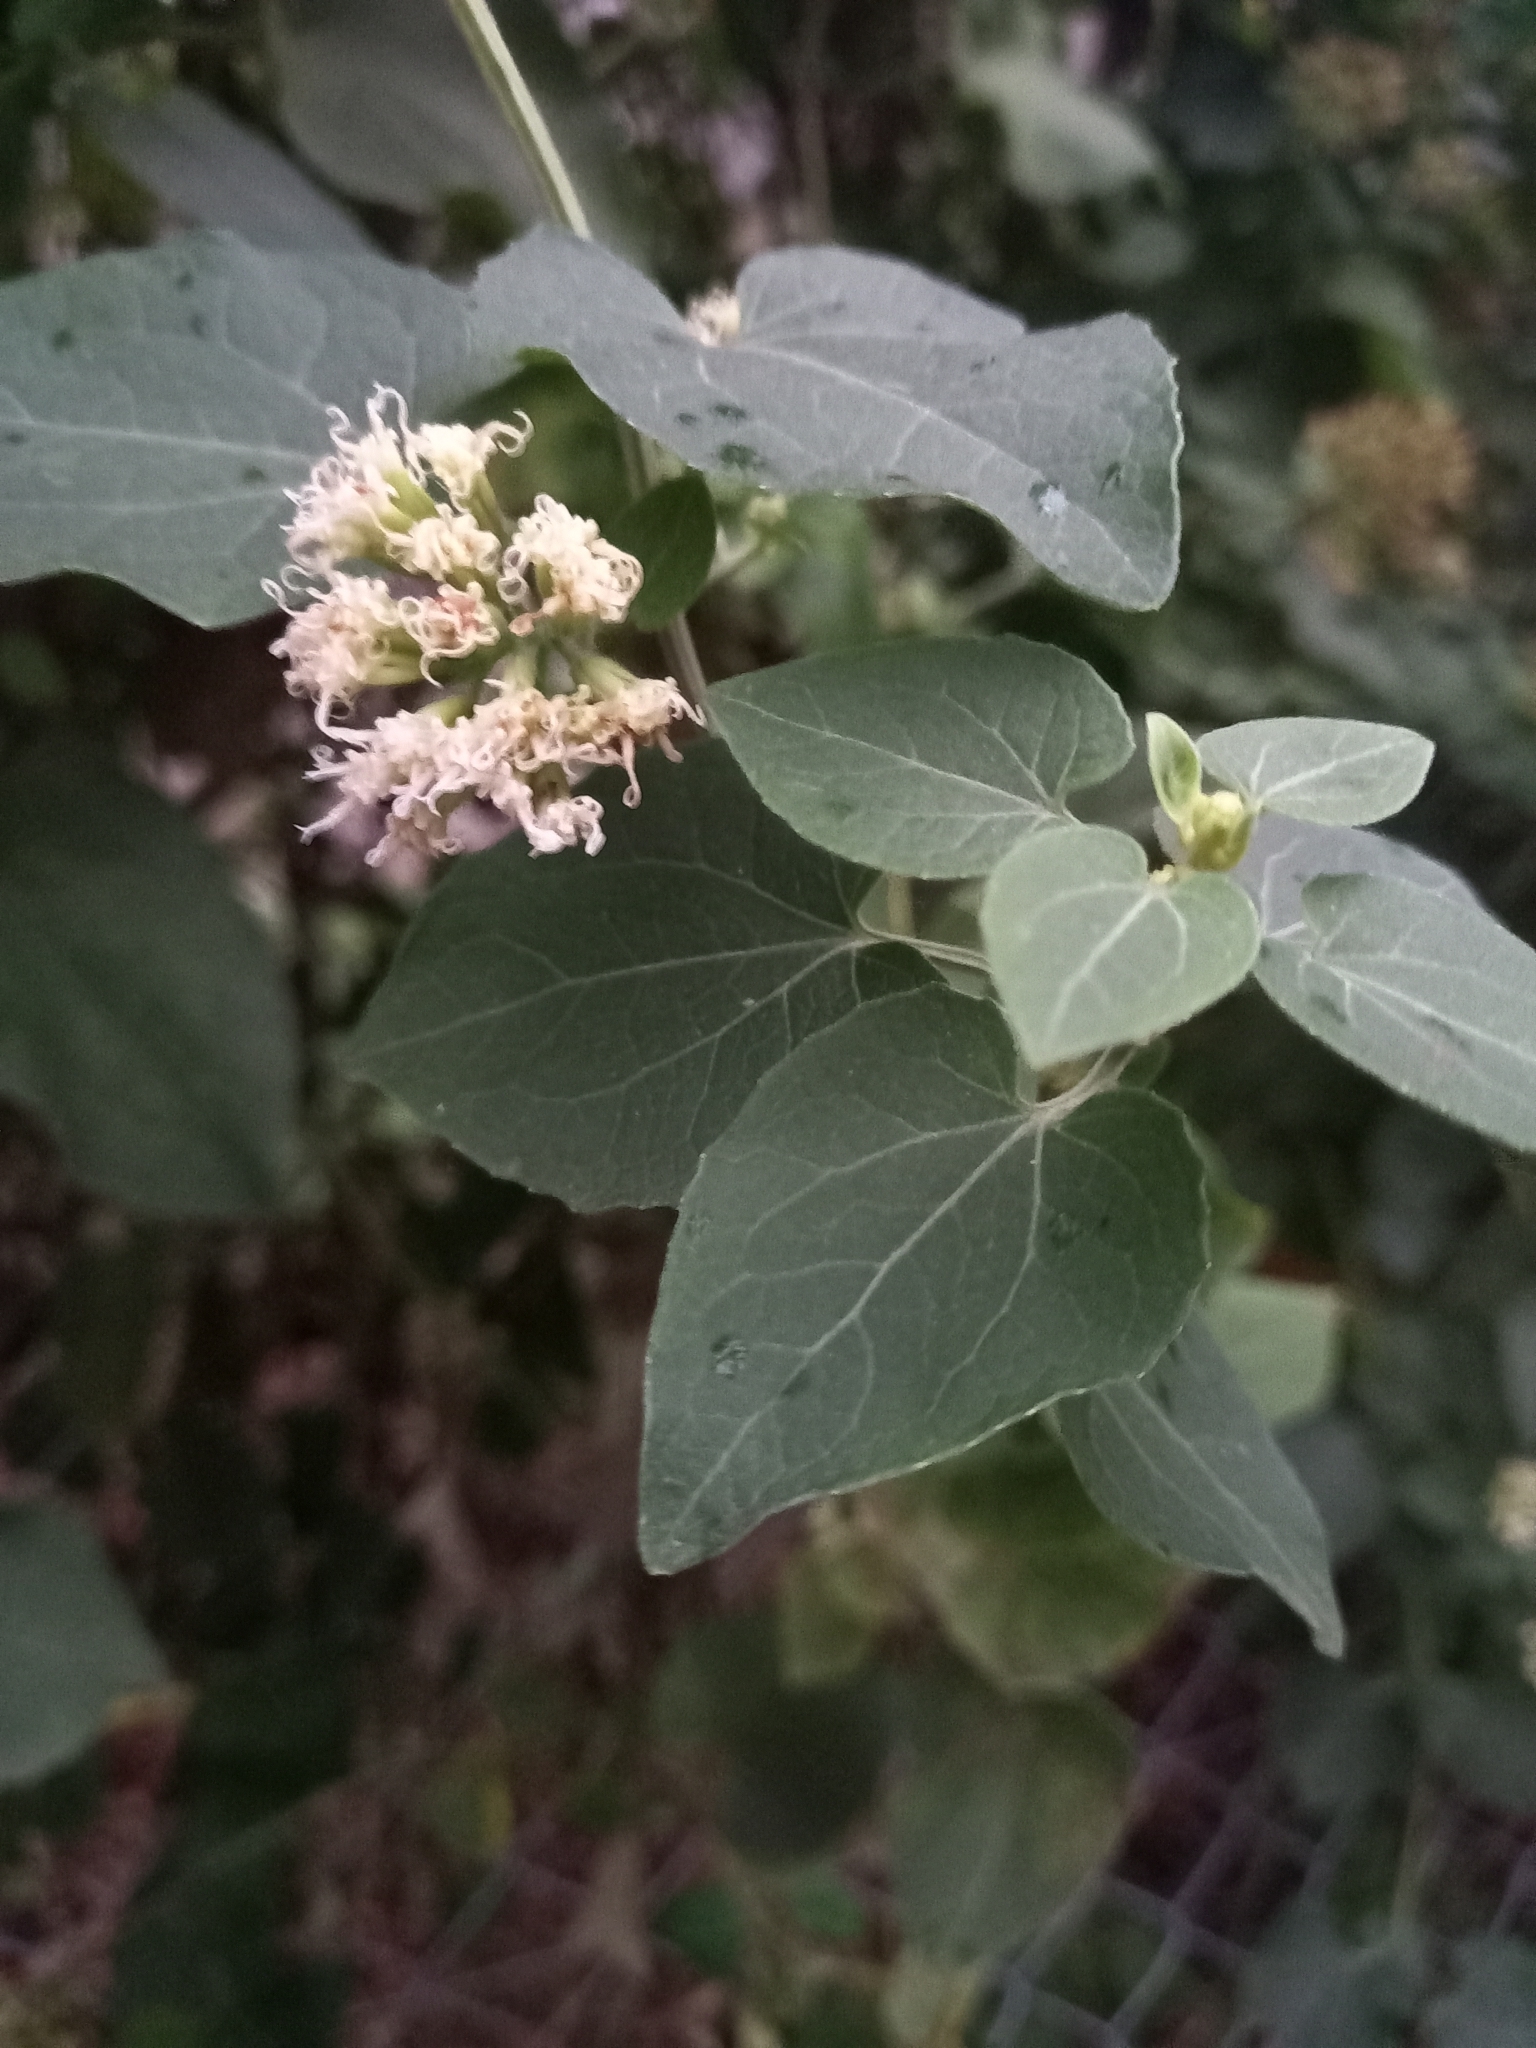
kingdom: Plantae
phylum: Tracheophyta
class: Magnoliopsida
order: Asterales
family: Asteraceae
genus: Mikania
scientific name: Mikania cordifolia
